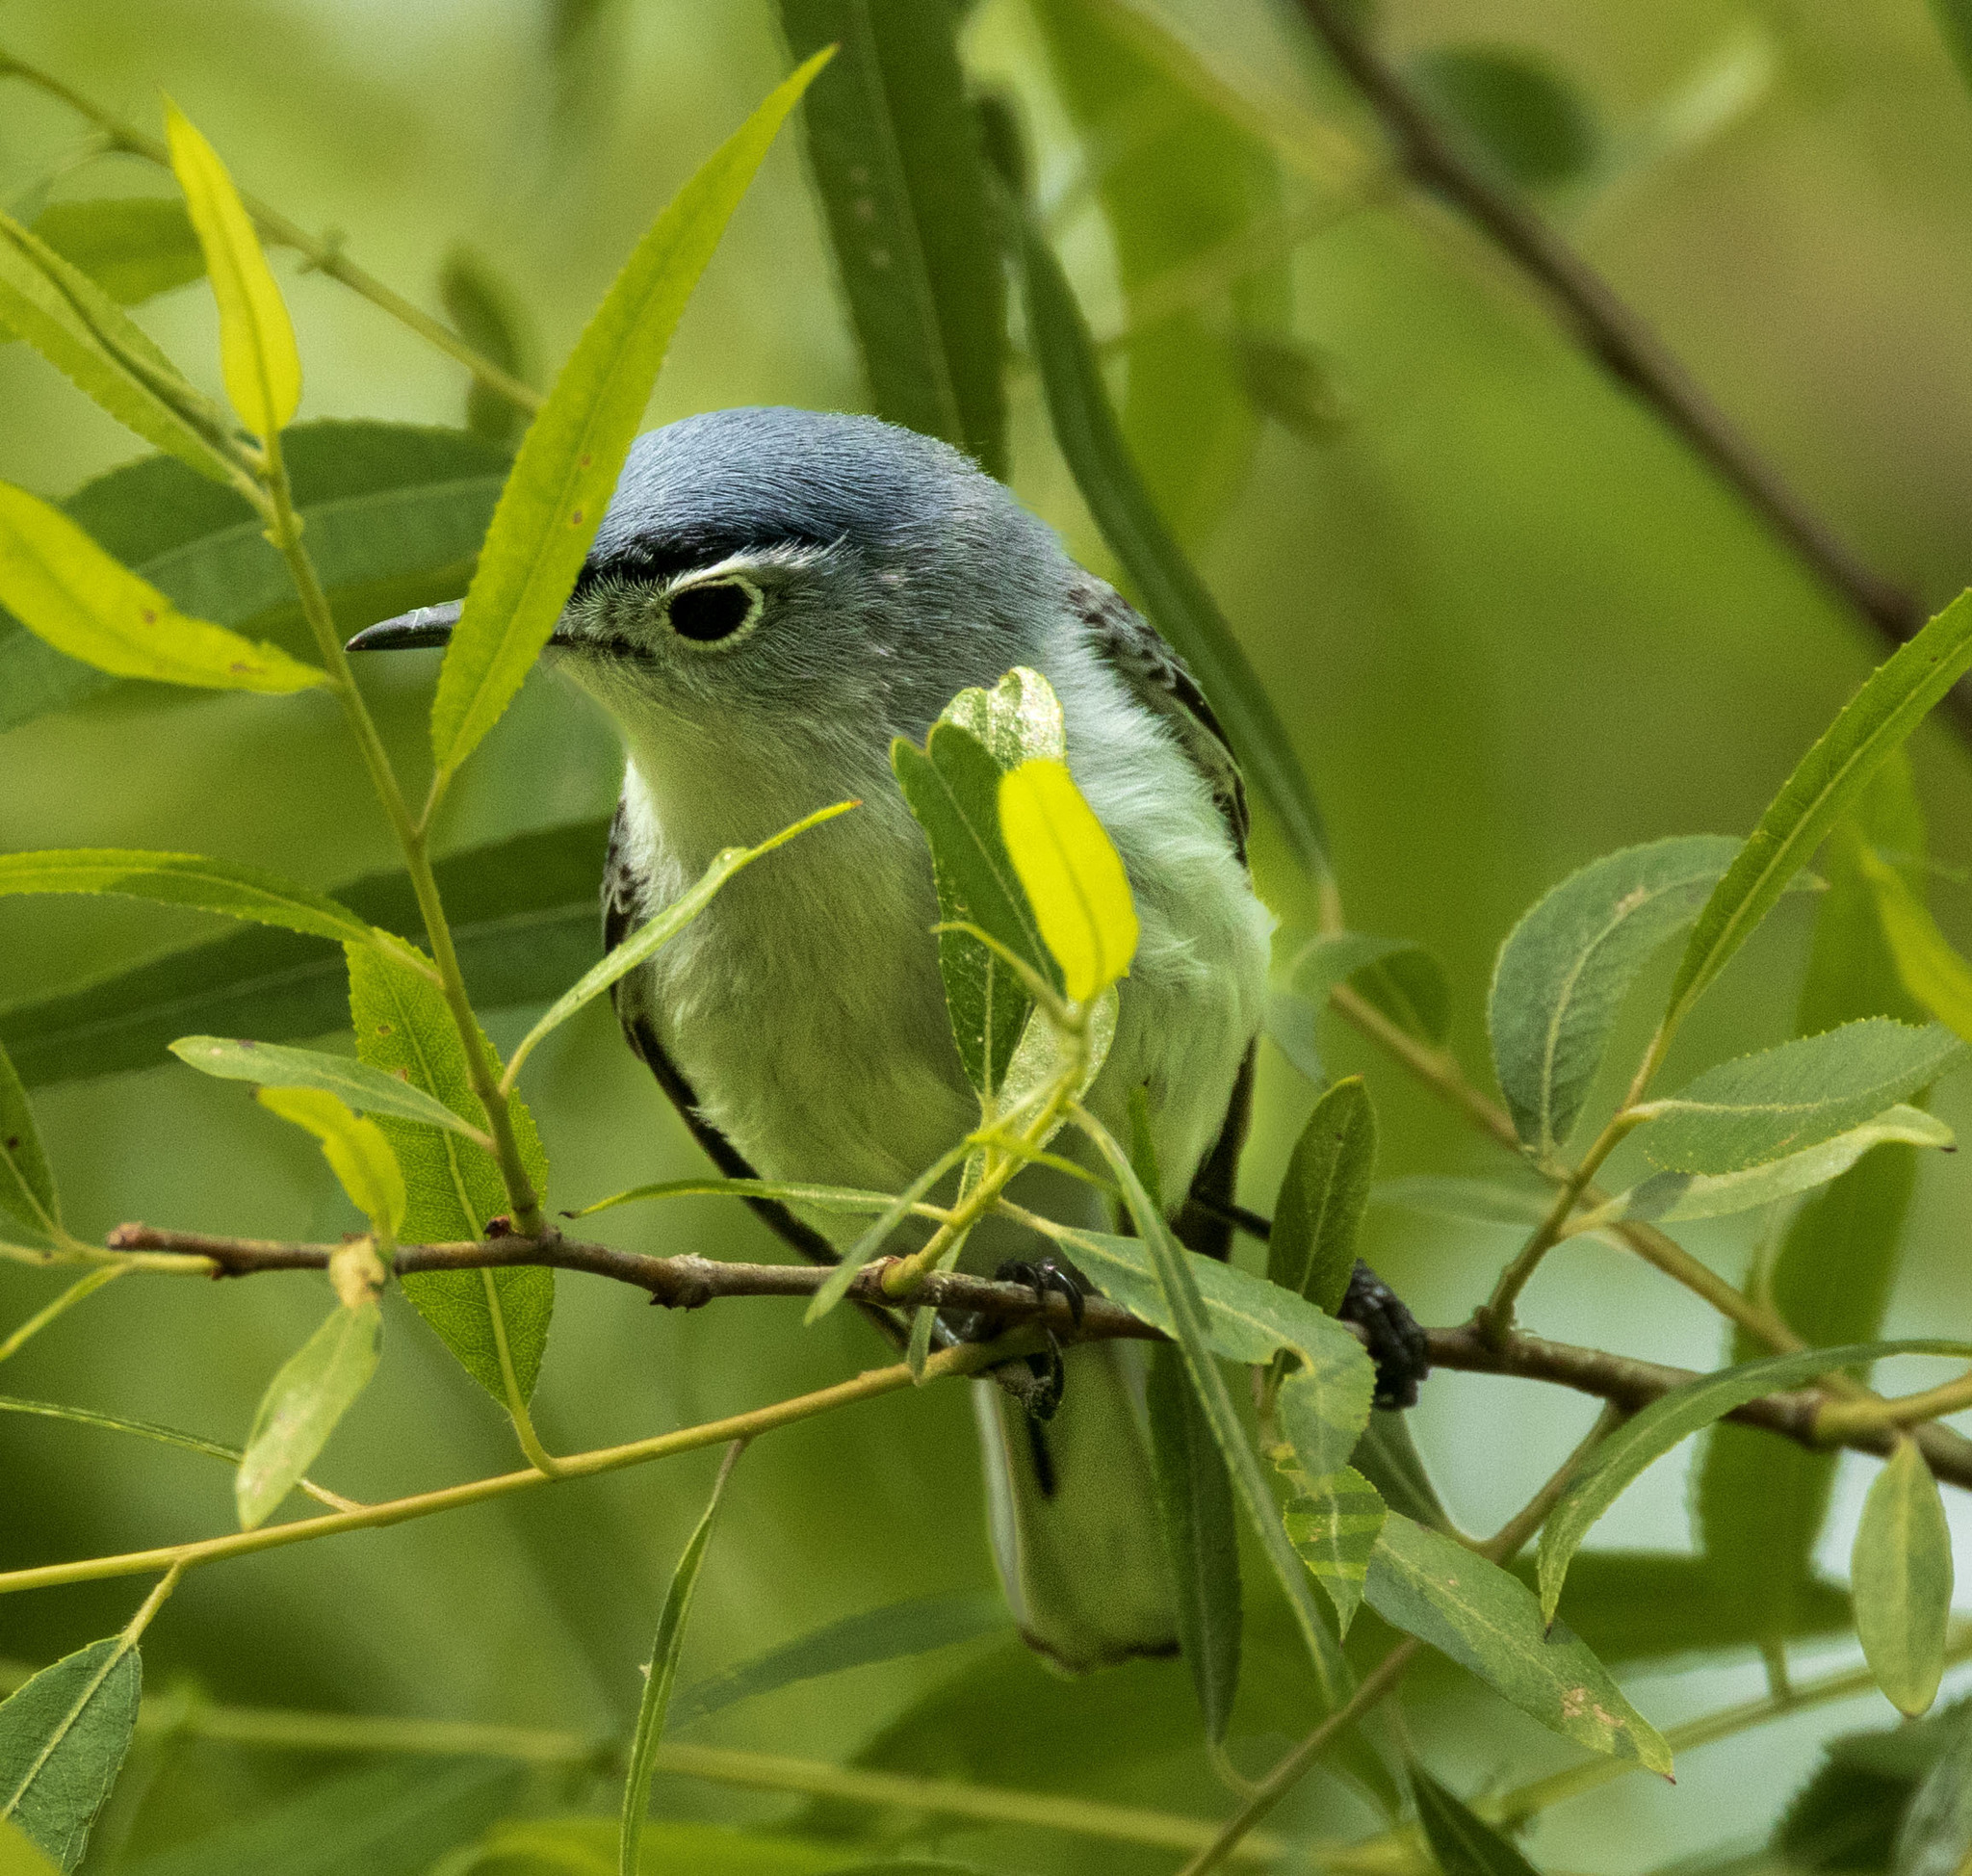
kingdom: Animalia
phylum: Chordata
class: Aves
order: Passeriformes
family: Polioptilidae
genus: Polioptila
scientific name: Polioptila caerulea
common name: Blue-gray gnatcatcher
